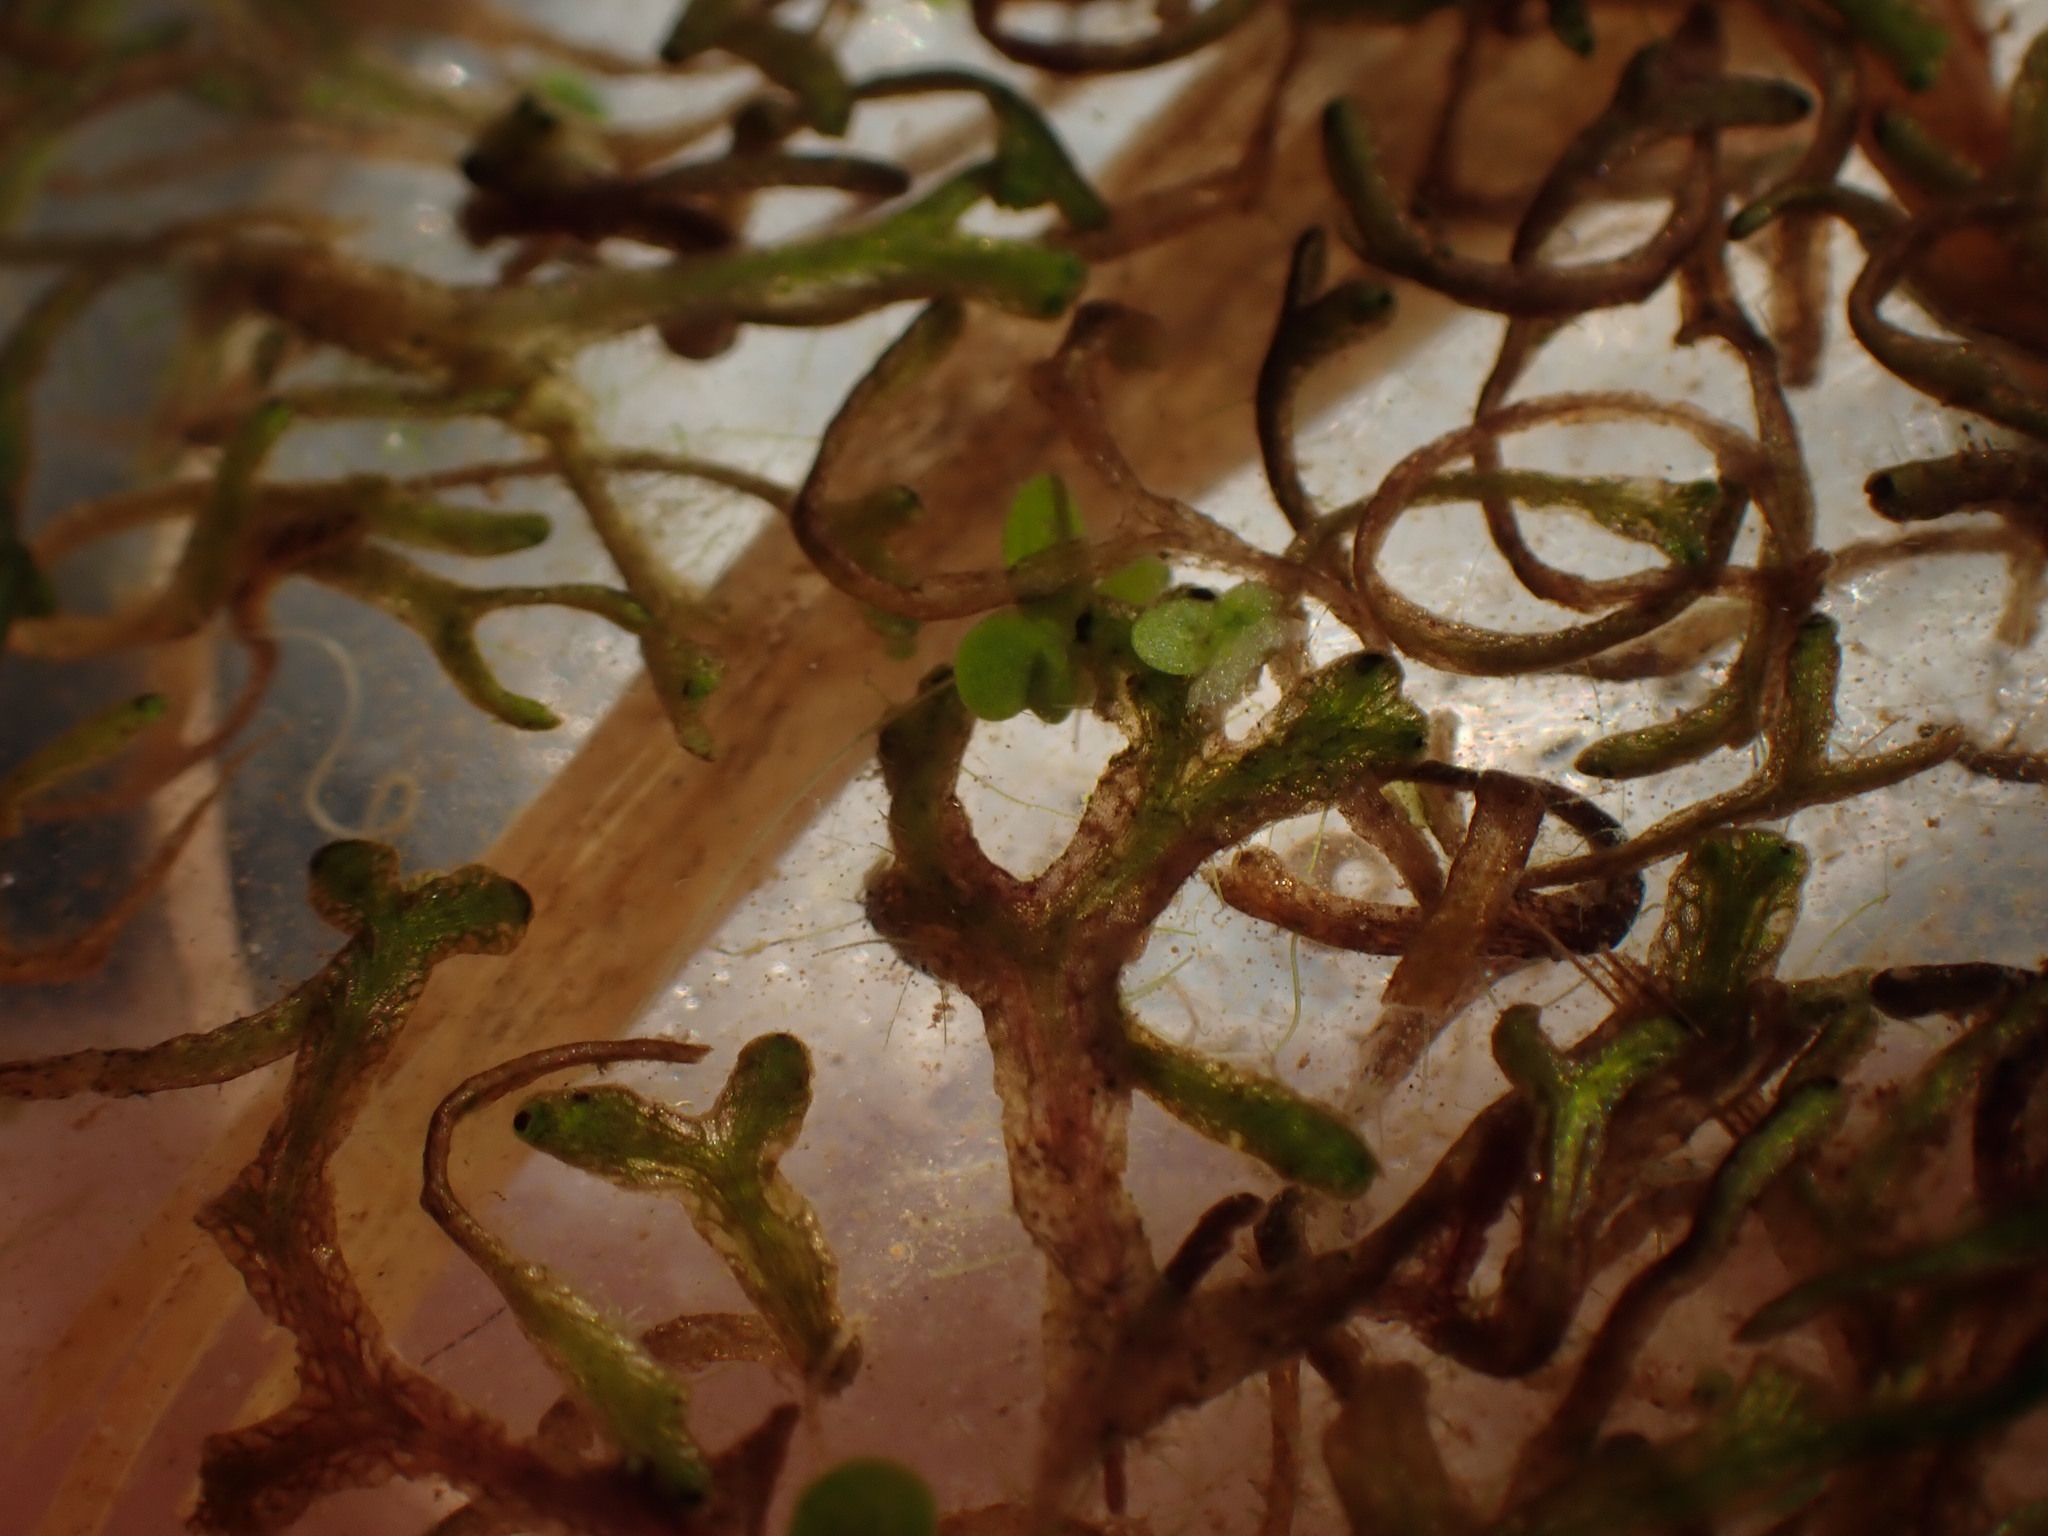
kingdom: Plantae
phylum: Marchantiophyta
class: Marchantiopsida
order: Marchantiales
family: Ricciaceae
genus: Riccia
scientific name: Riccia fluitans
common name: Floating crystalwort
